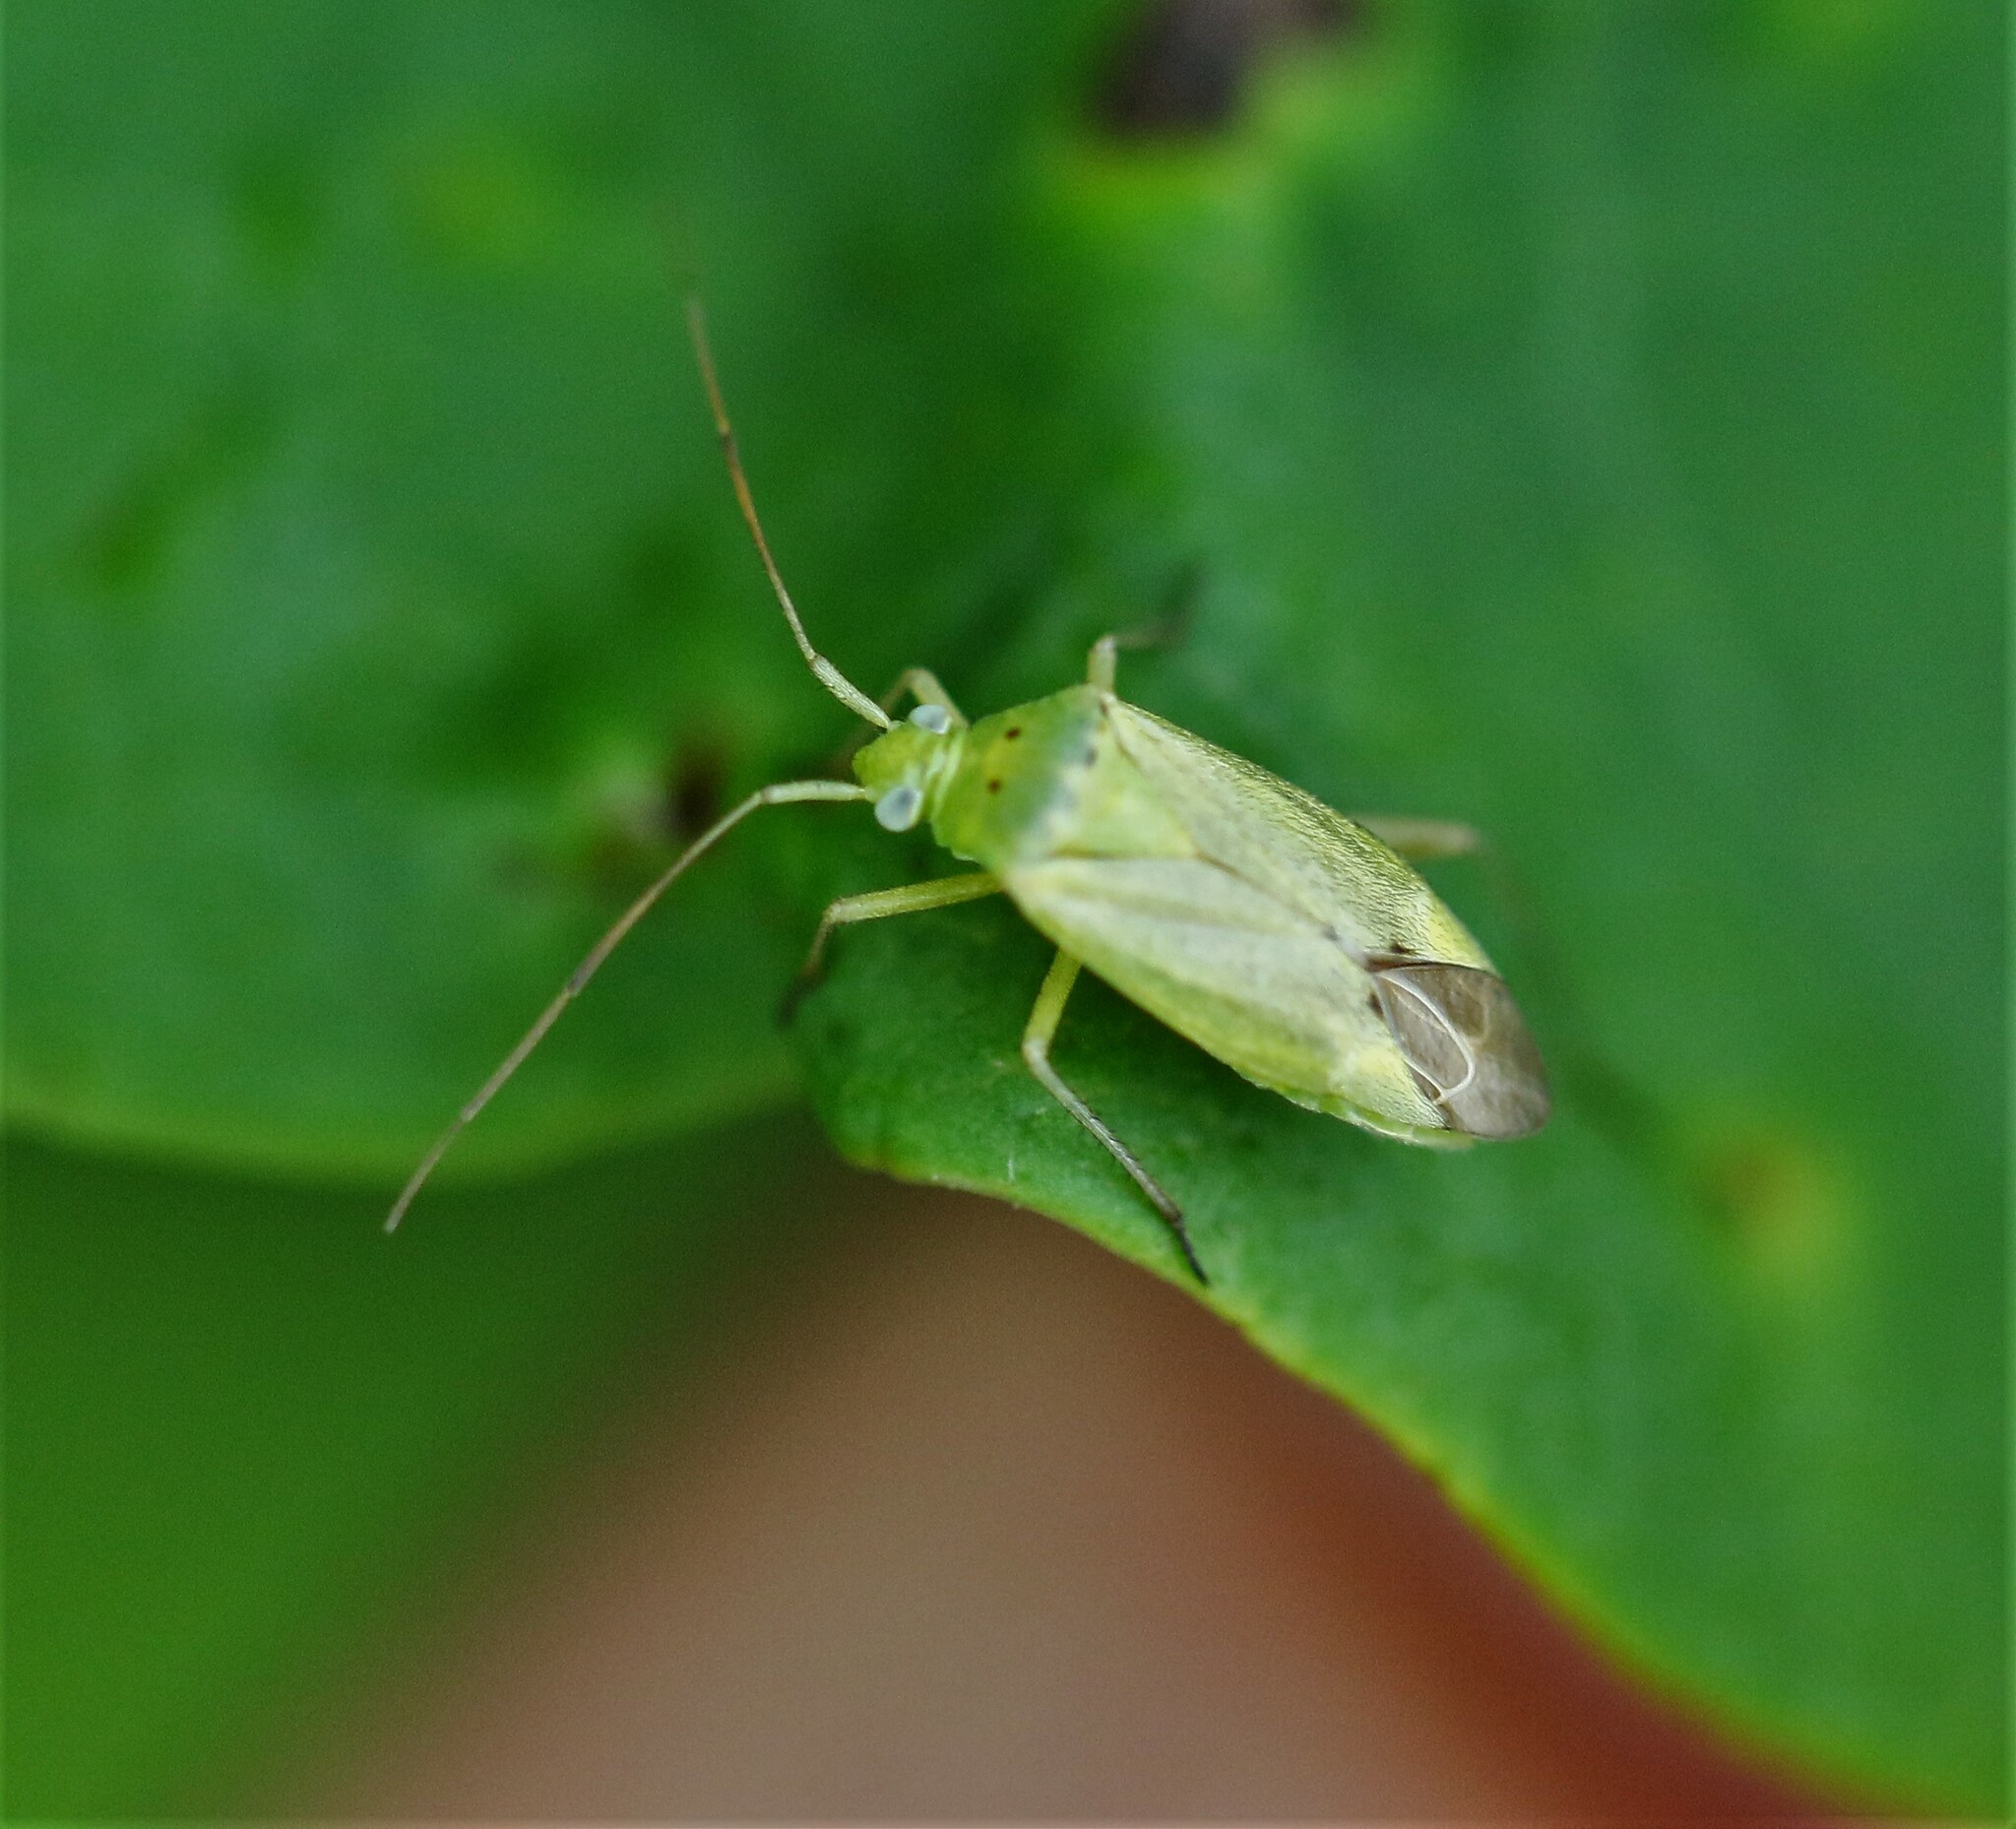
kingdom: Animalia
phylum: Arthropoda
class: Insecta
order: Hemiptera
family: Miridae
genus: Closterotomus
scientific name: Closterotomus norvegicus
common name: Plant bug
